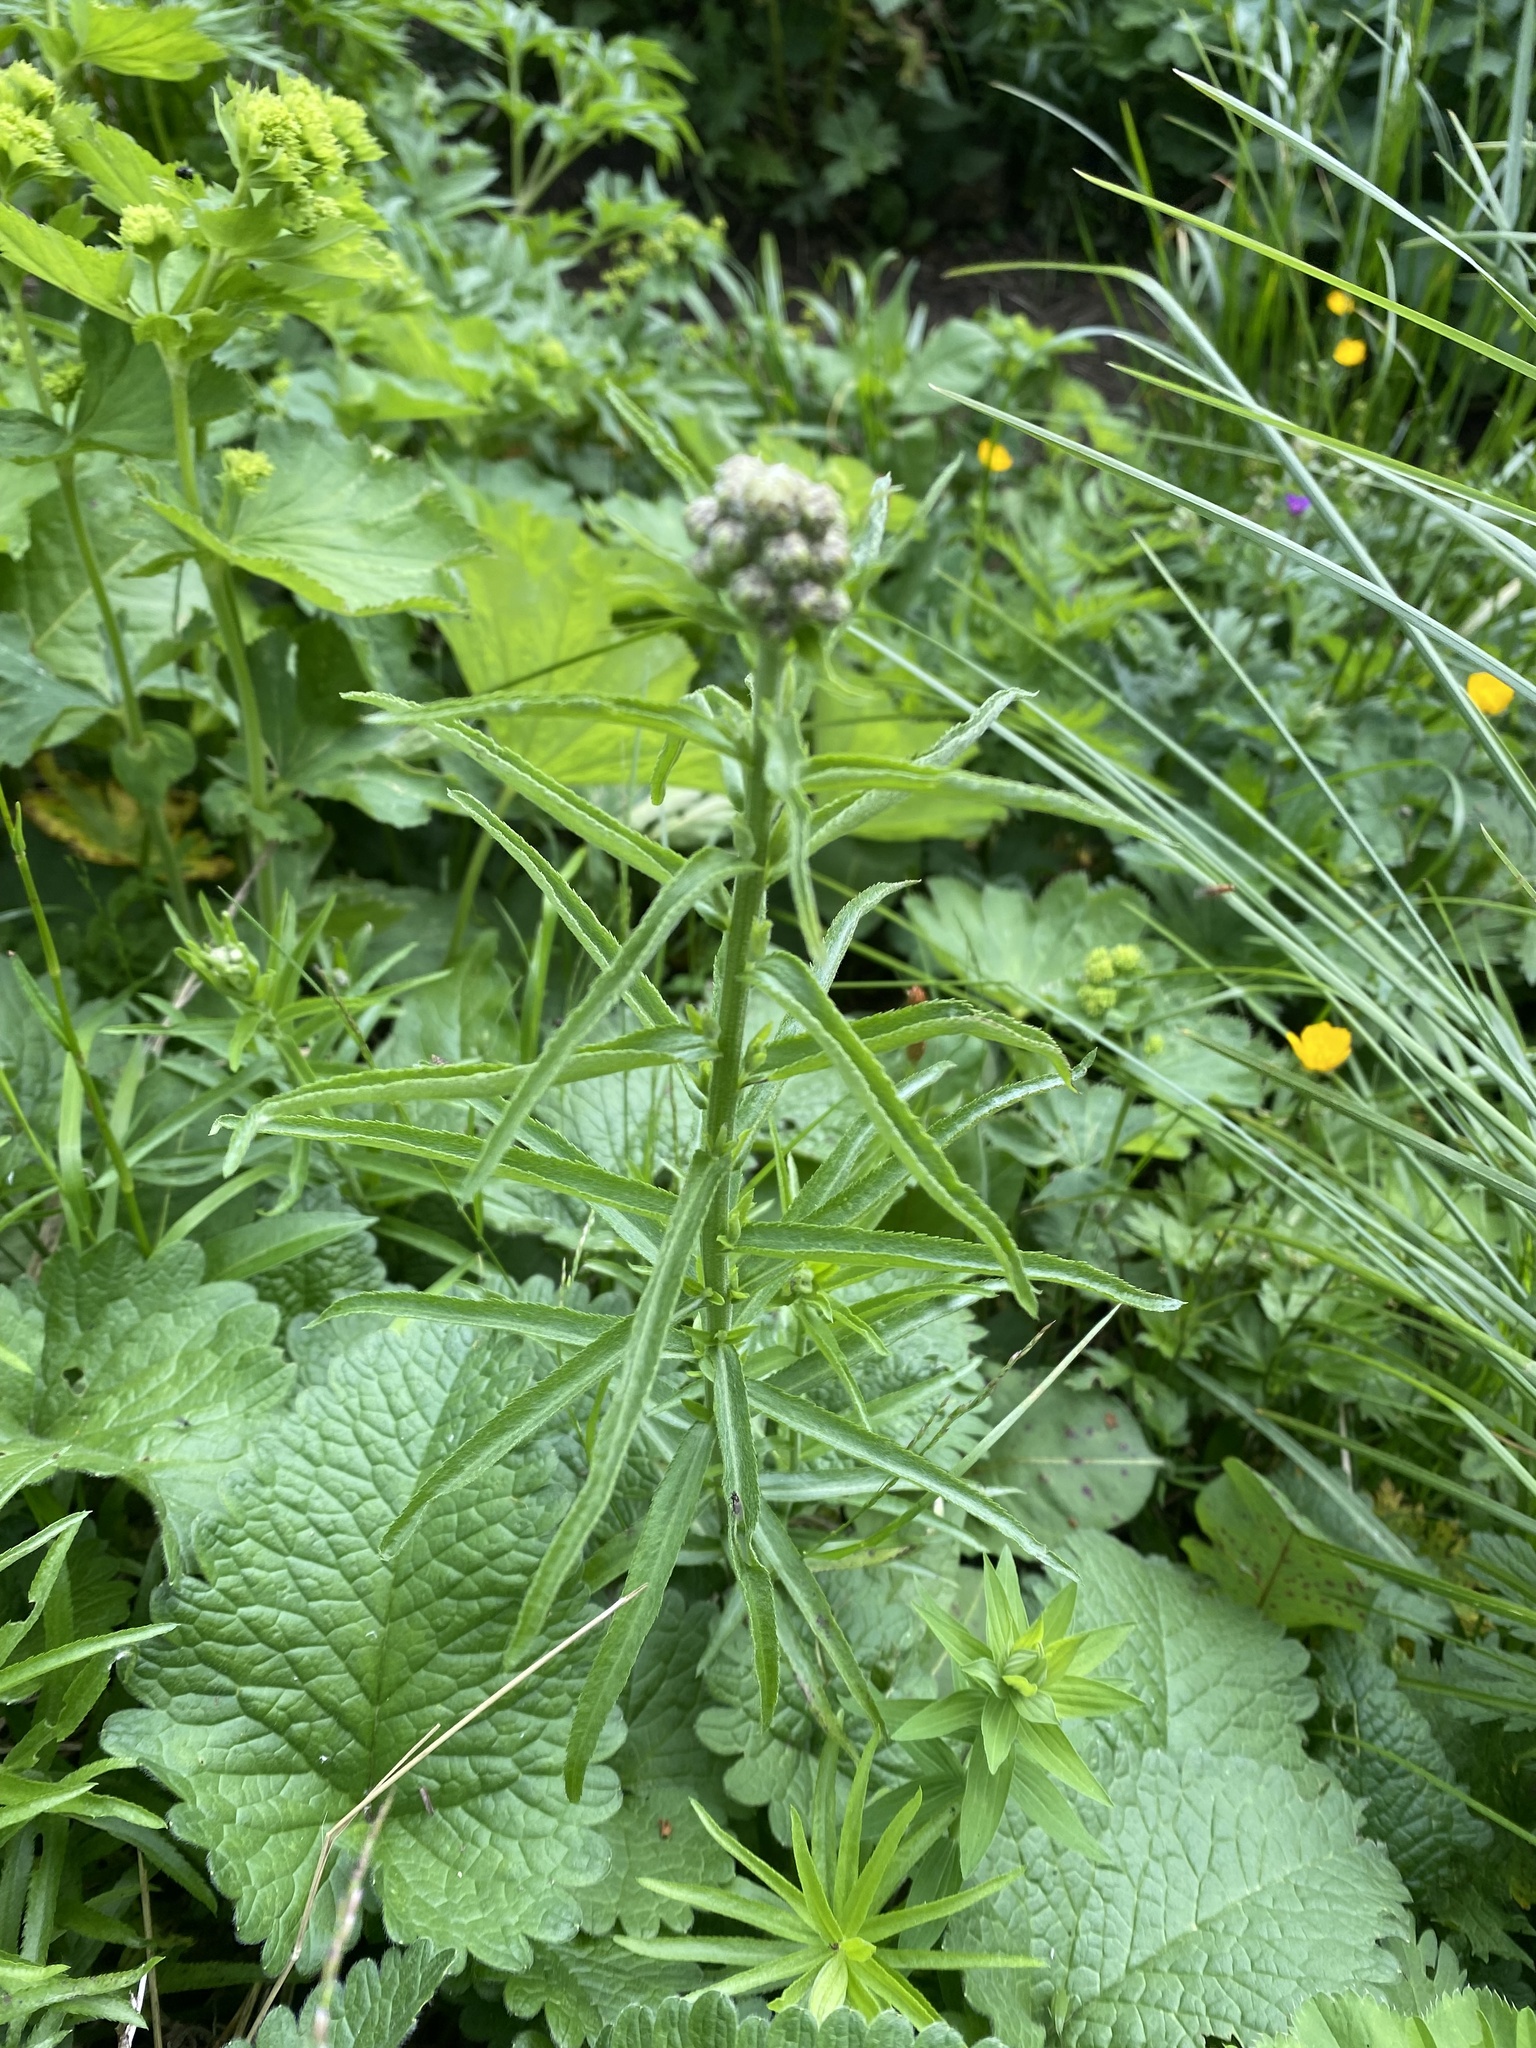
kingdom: Plantae
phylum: Tracheophyta
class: Magnoliopsida
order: Asterales
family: Asteraceae
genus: Achillea
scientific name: Achillea biserrata
